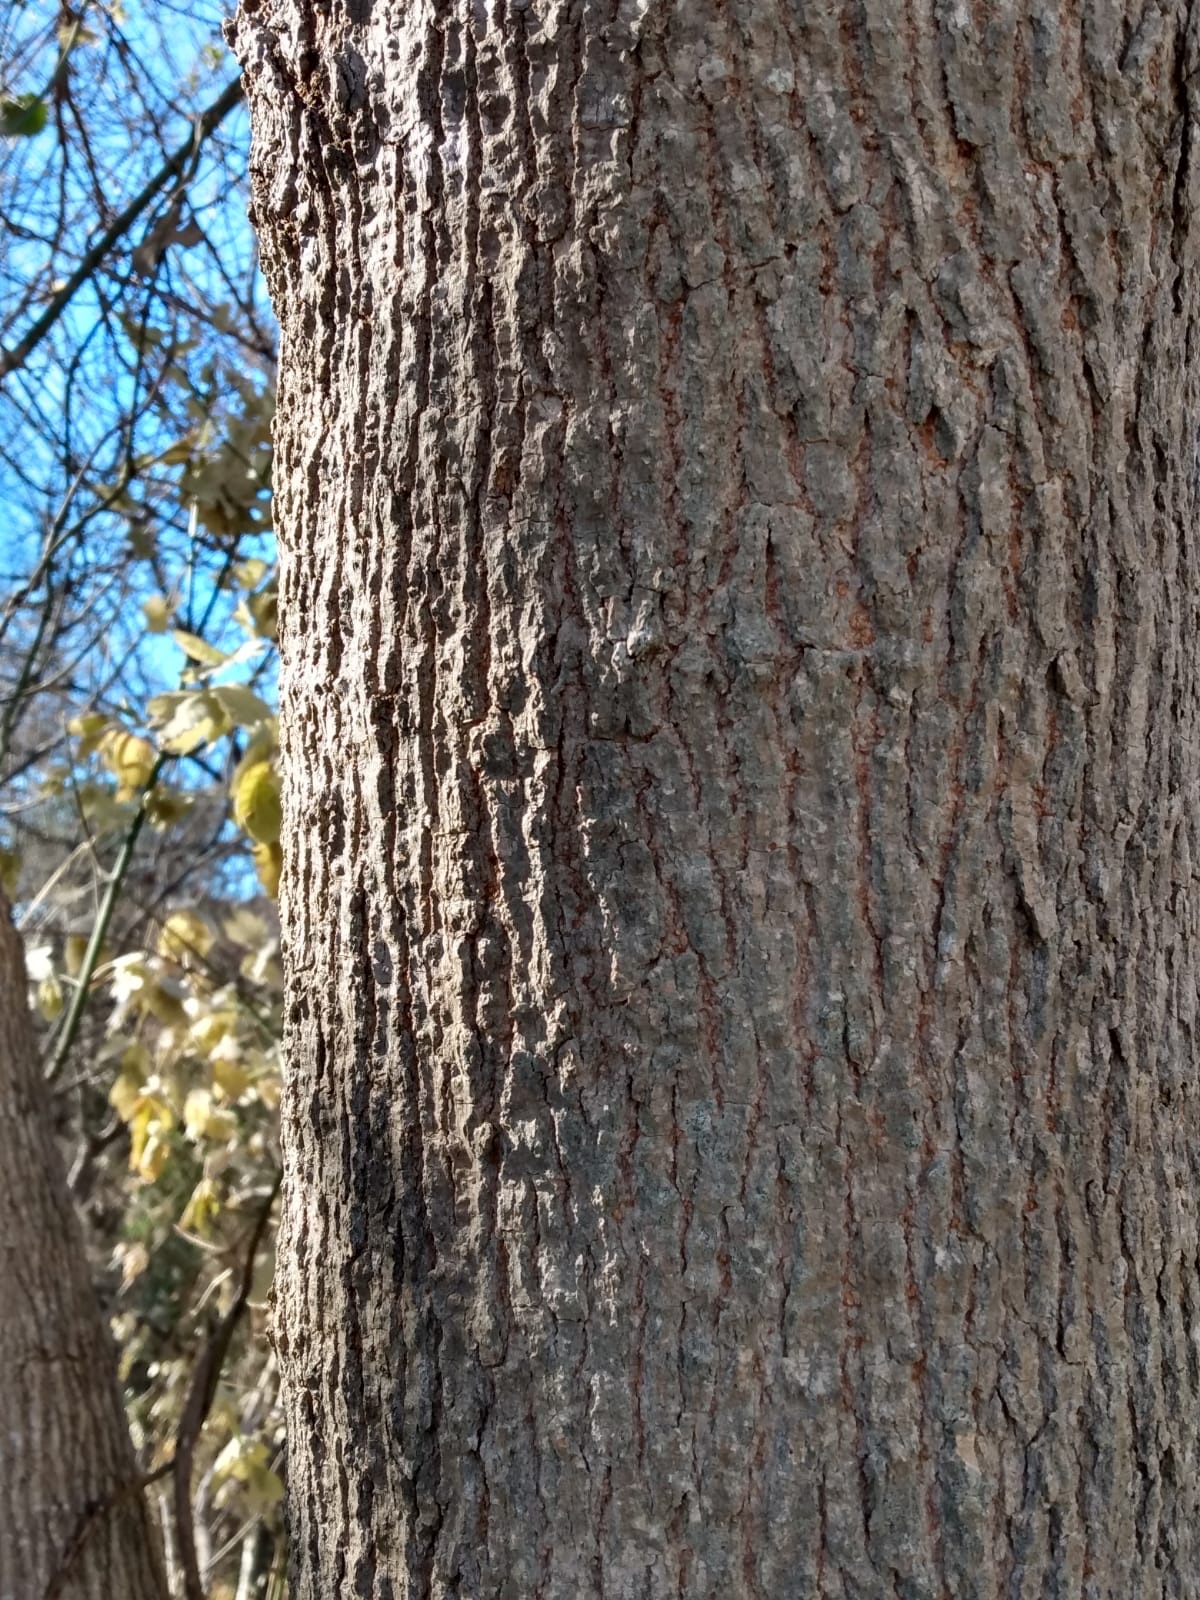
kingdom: Plantae
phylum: Tracheophyta
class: Magnoliopsida
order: Sapindales
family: Sapindaceae
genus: Acer
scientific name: Acer negundo
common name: Ashleaf maple
